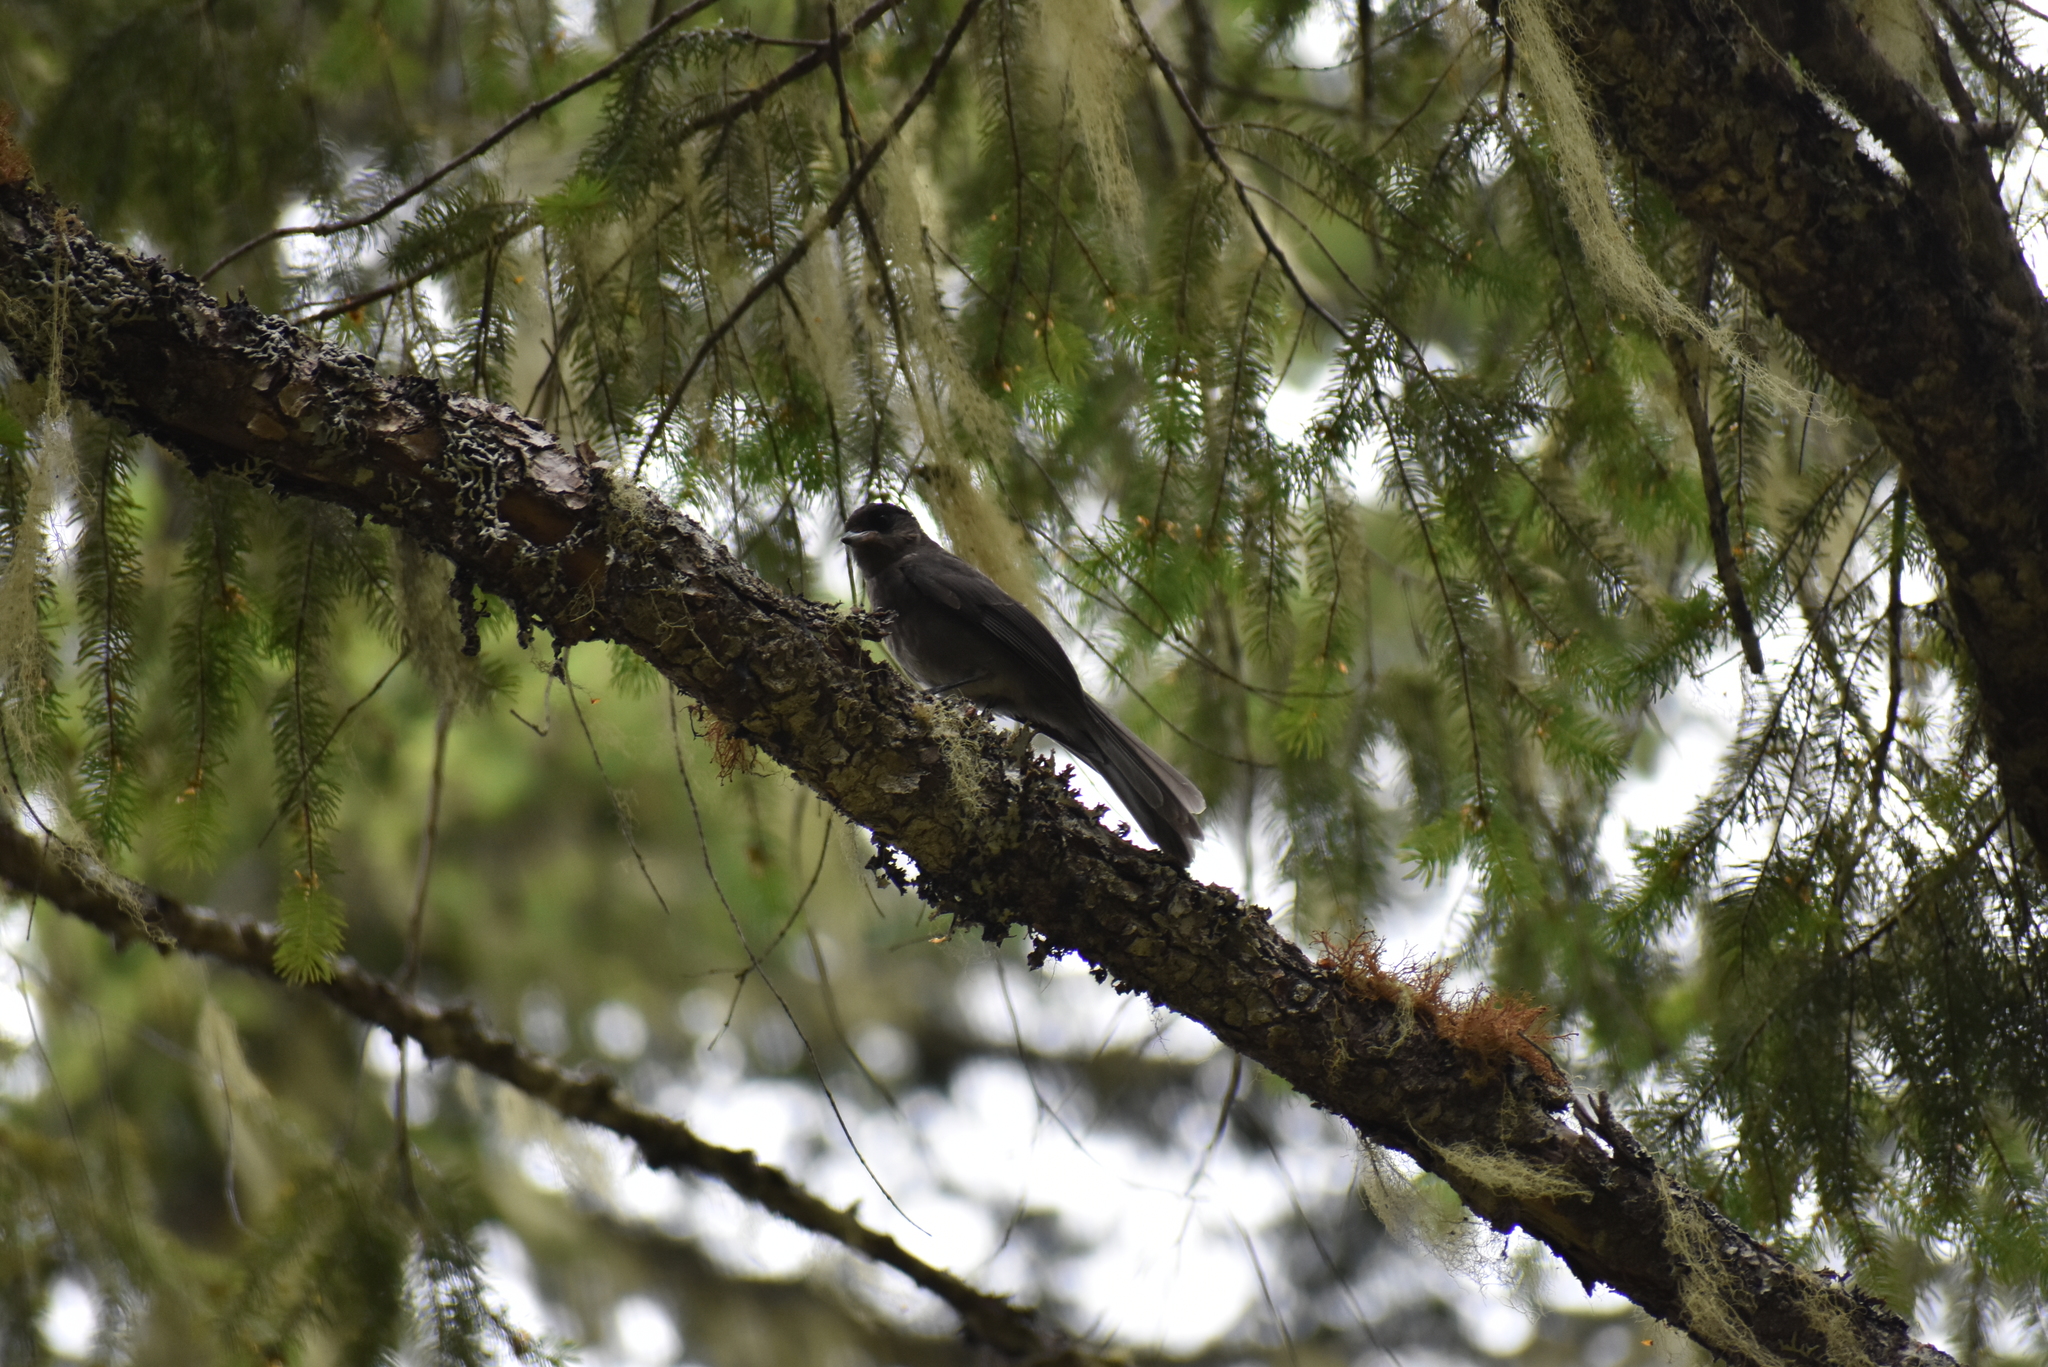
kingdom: Animalia
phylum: Chordata
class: Aves
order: Passeriformes
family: Corvidae
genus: Perisoreus
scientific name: Perisoreus canadensis
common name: Gray jay
